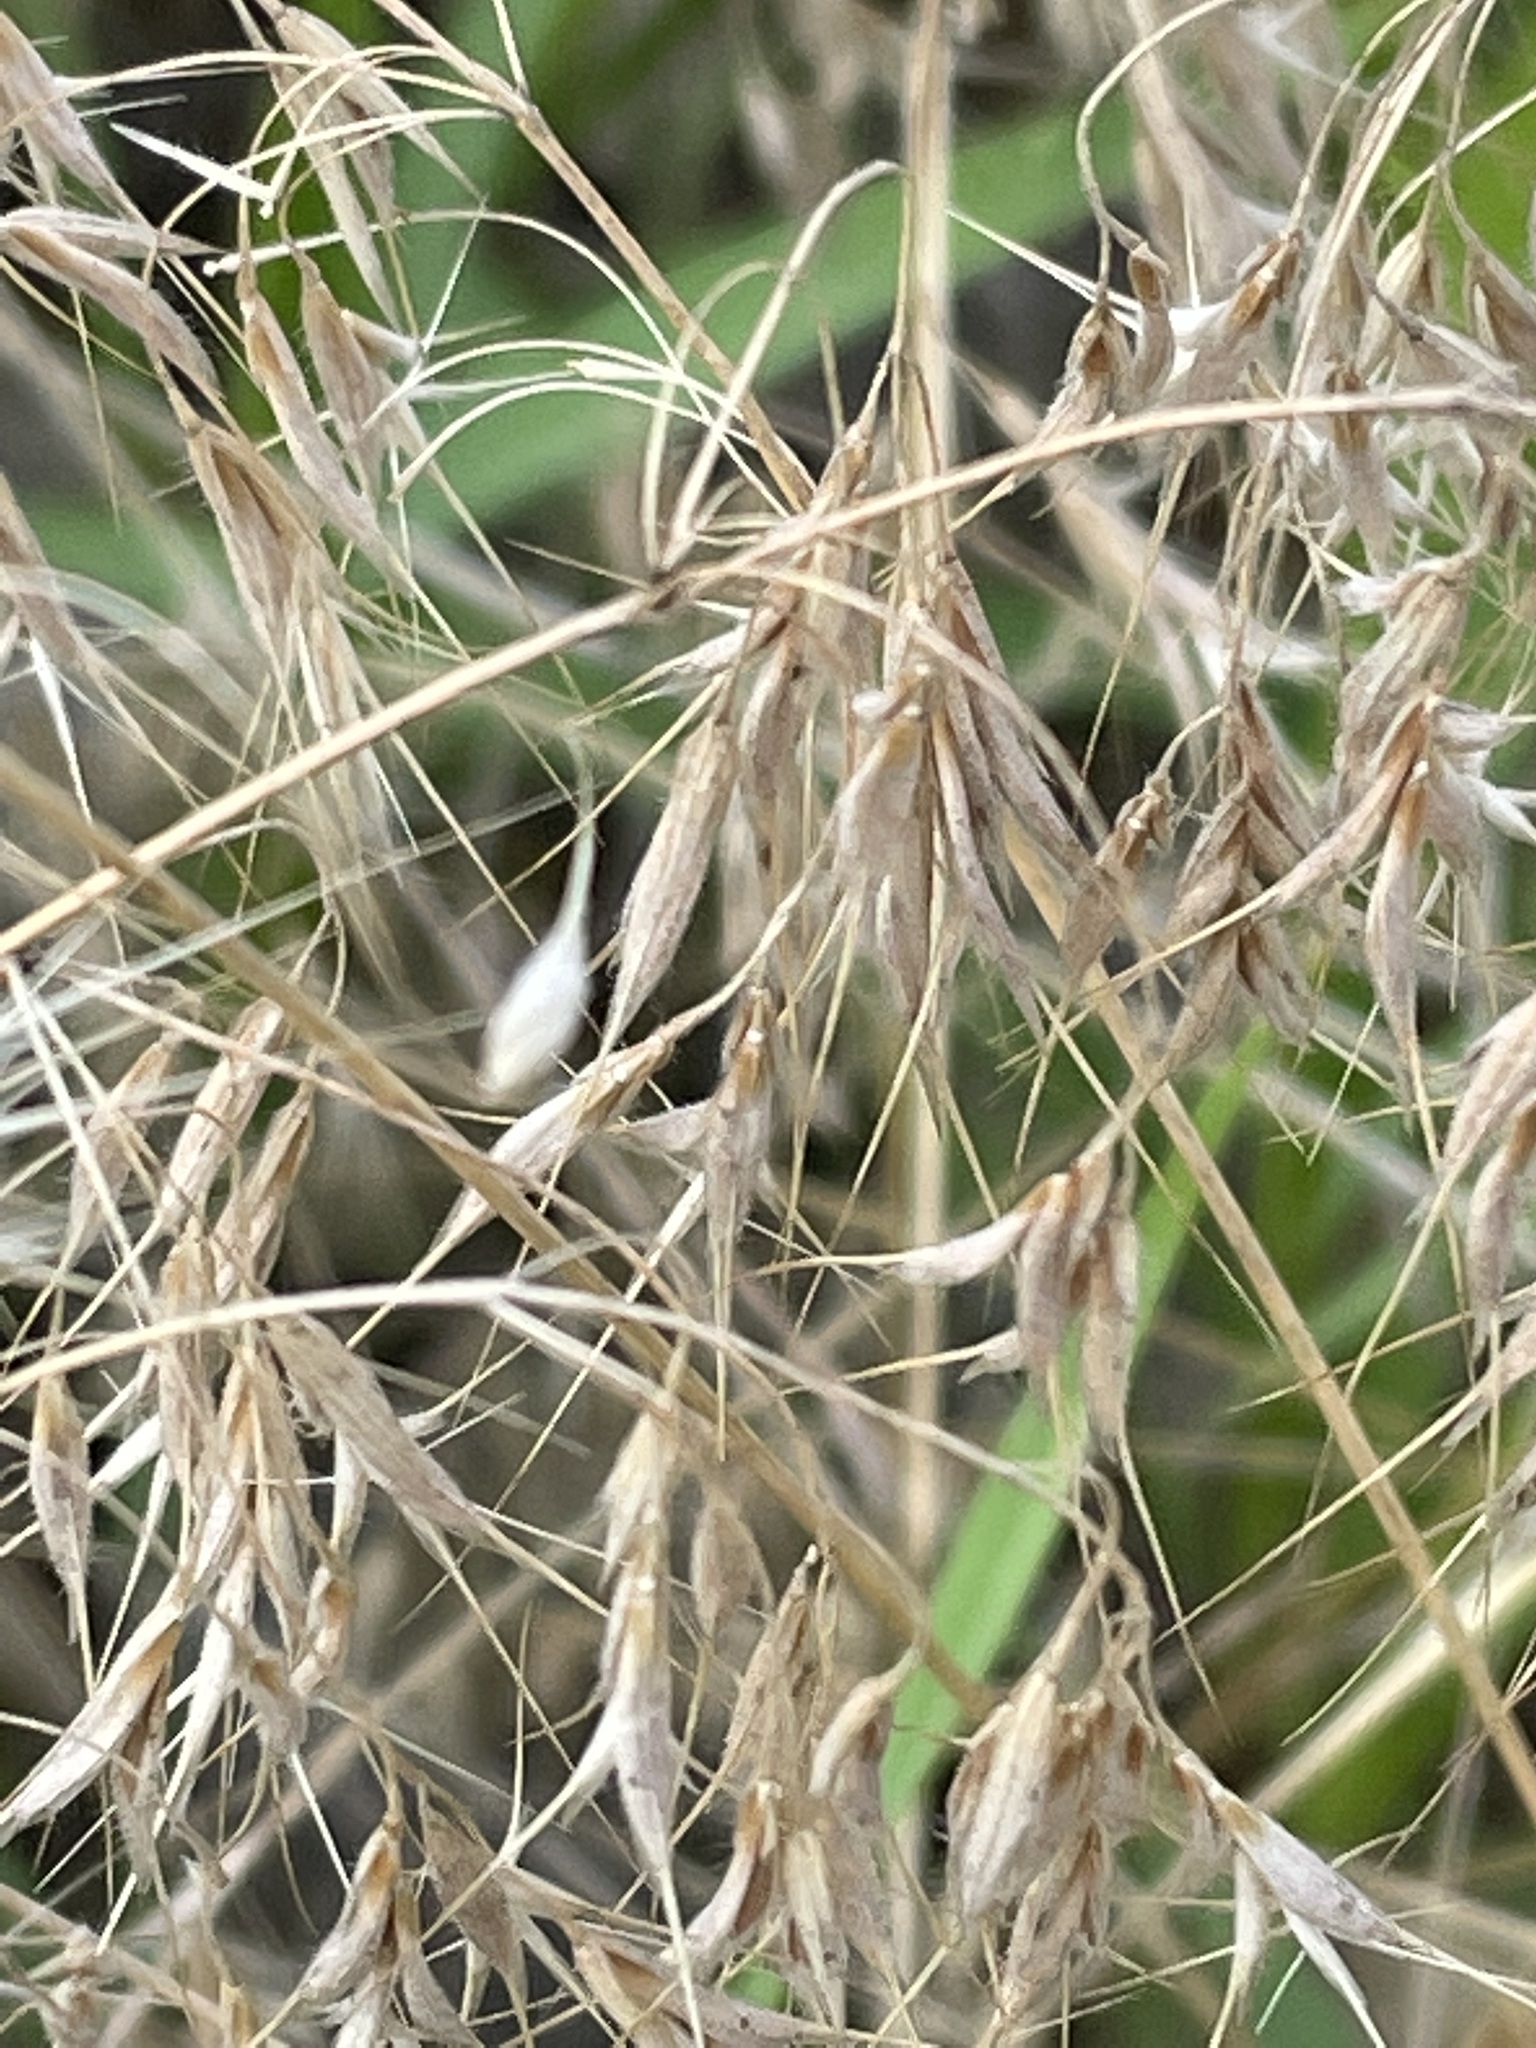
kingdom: Plantae
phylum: Tracheophyta
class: Liliopsida
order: Poales
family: Poaceae
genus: Bromus
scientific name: Bromus tectorum
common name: Cheatgrass
